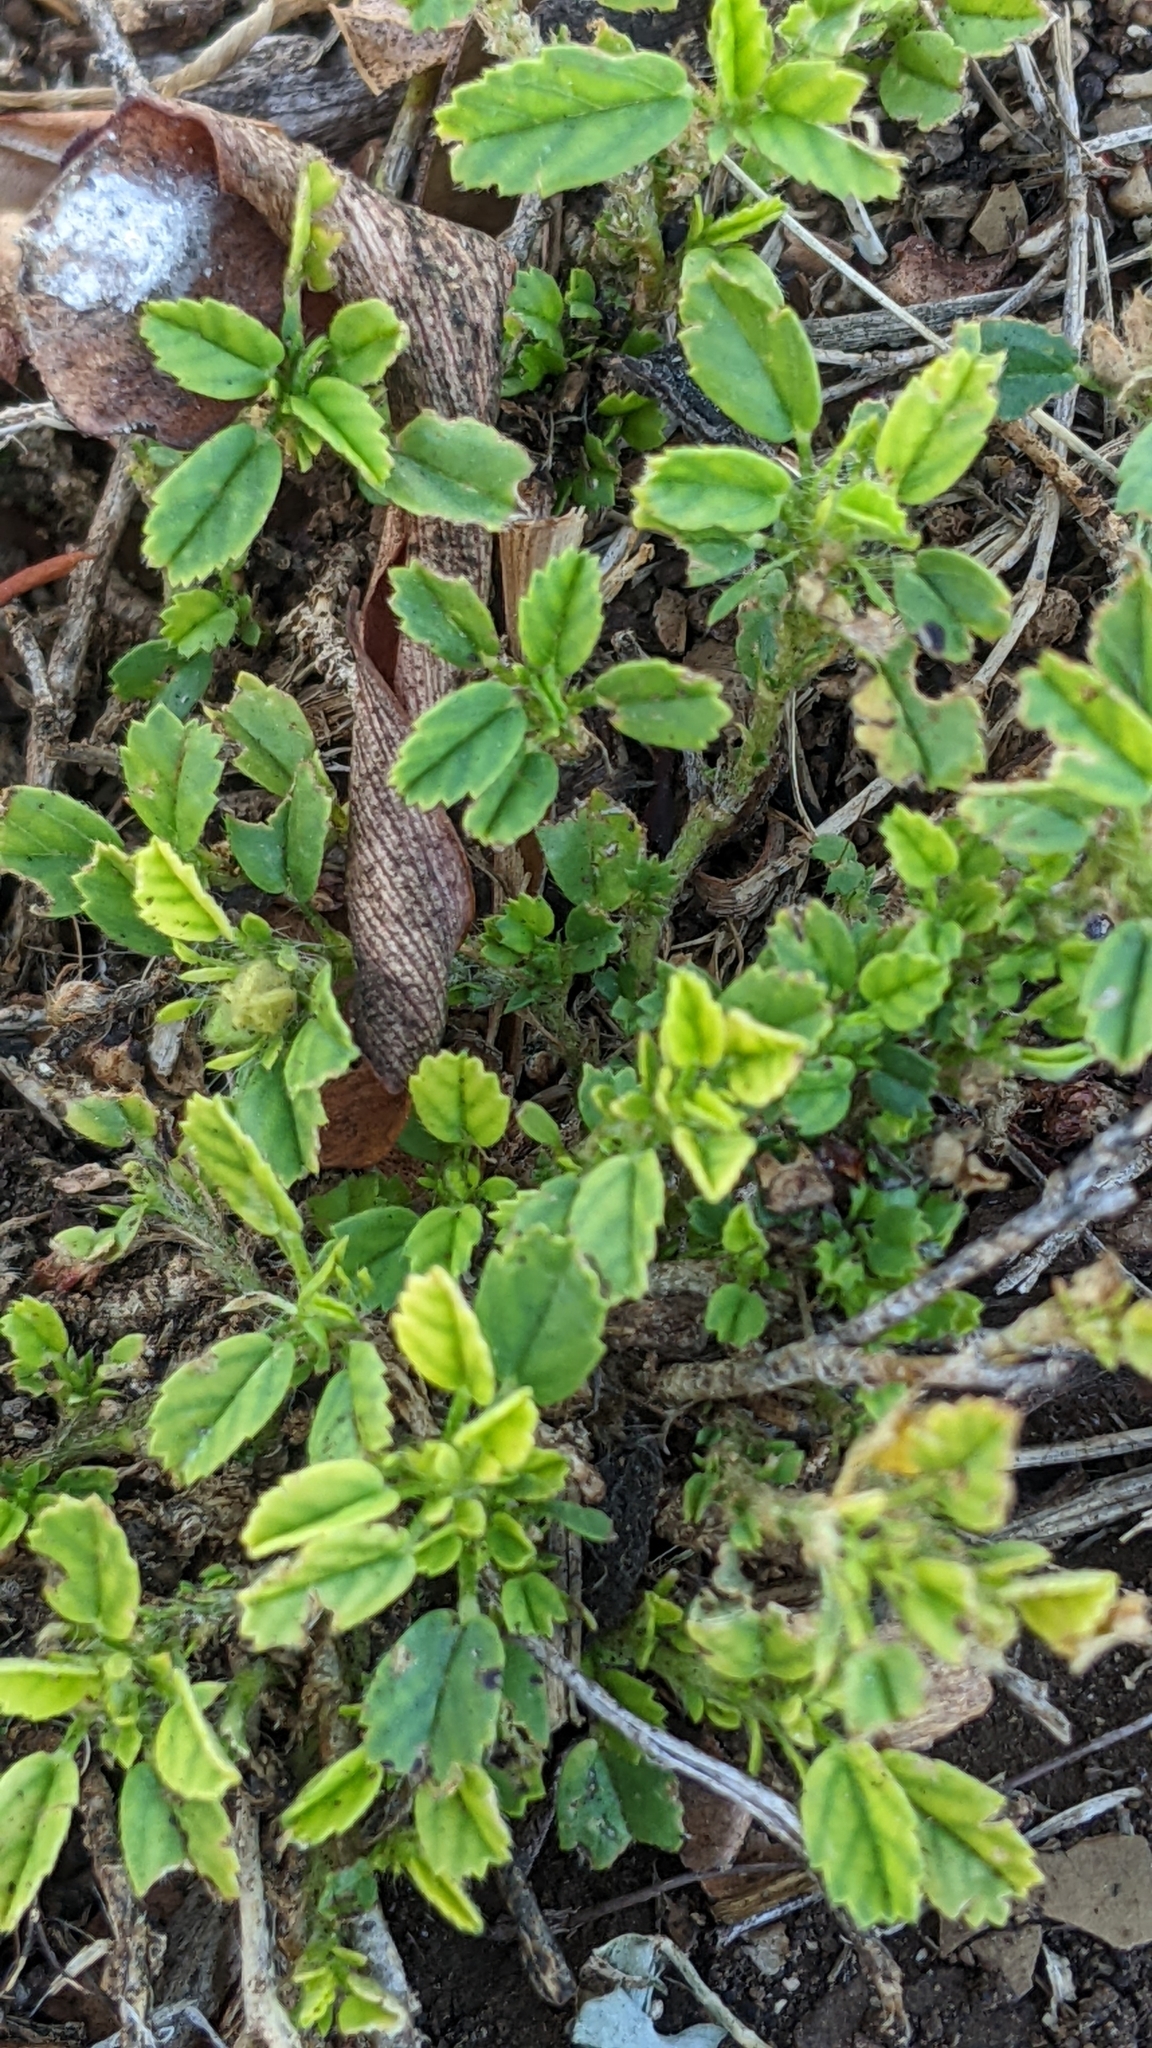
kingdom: Plantae
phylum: Tracheophyta
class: Magnoliopsida
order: Malvales
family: Malvaceae
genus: Sida
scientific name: Sida ciliaris
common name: Bracted fanpetals
